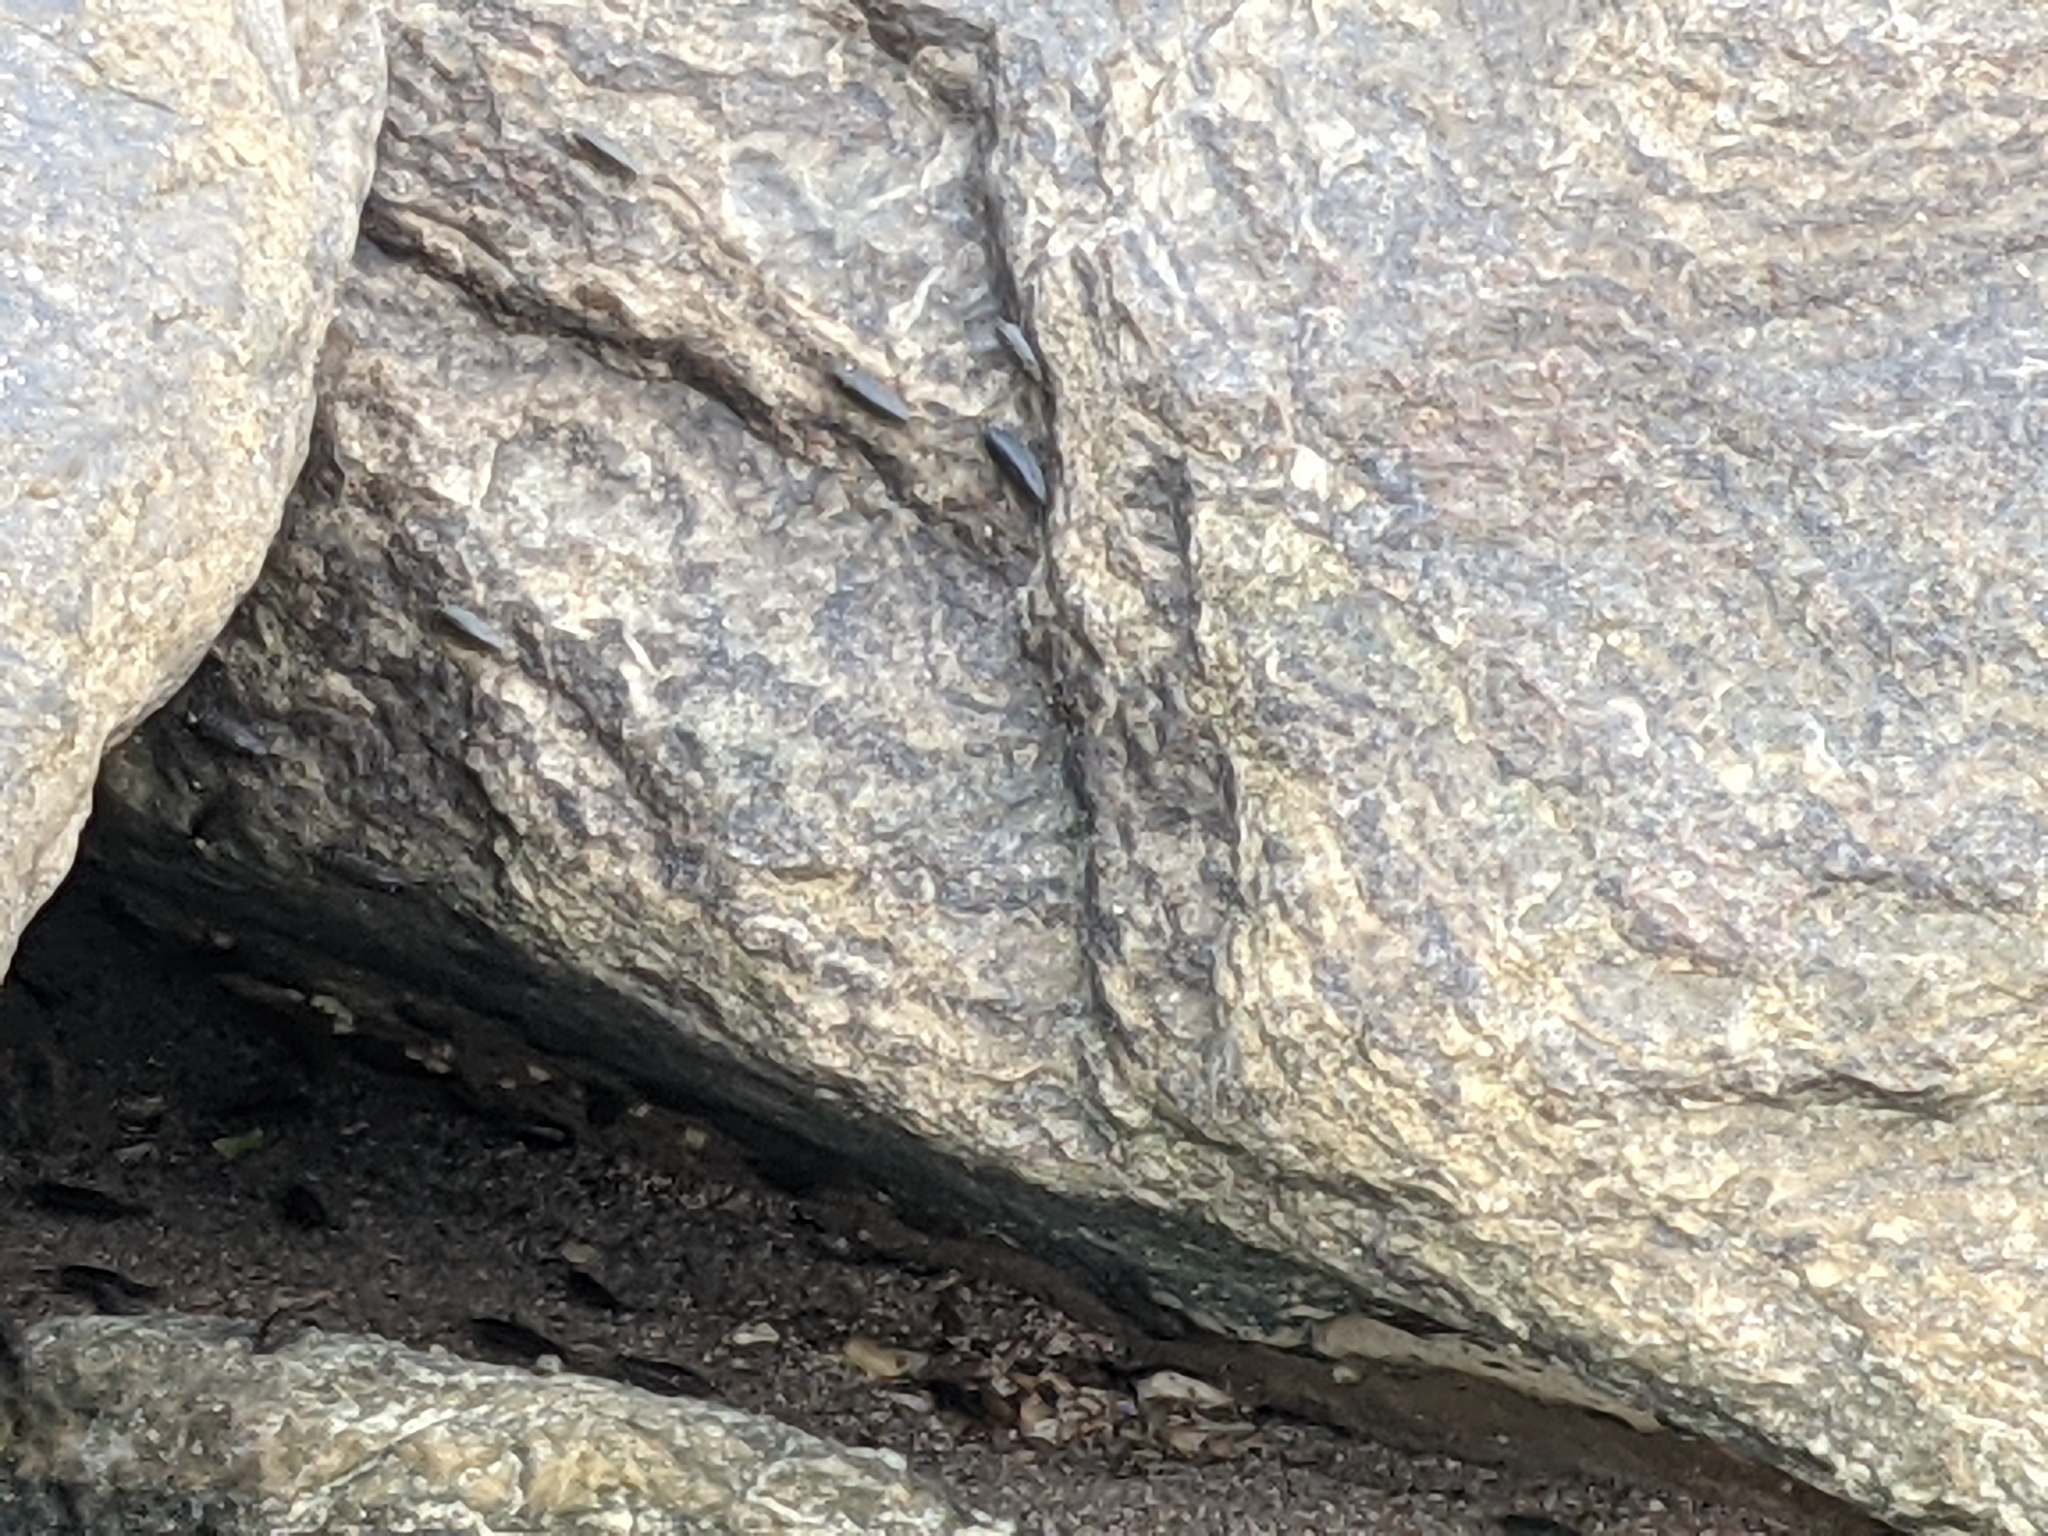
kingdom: Animalia
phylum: Arthropoda
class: Malacostraca
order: Isopoda
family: Ligiidae
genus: Ligia
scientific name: Ligia exotica
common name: Wharf roach
